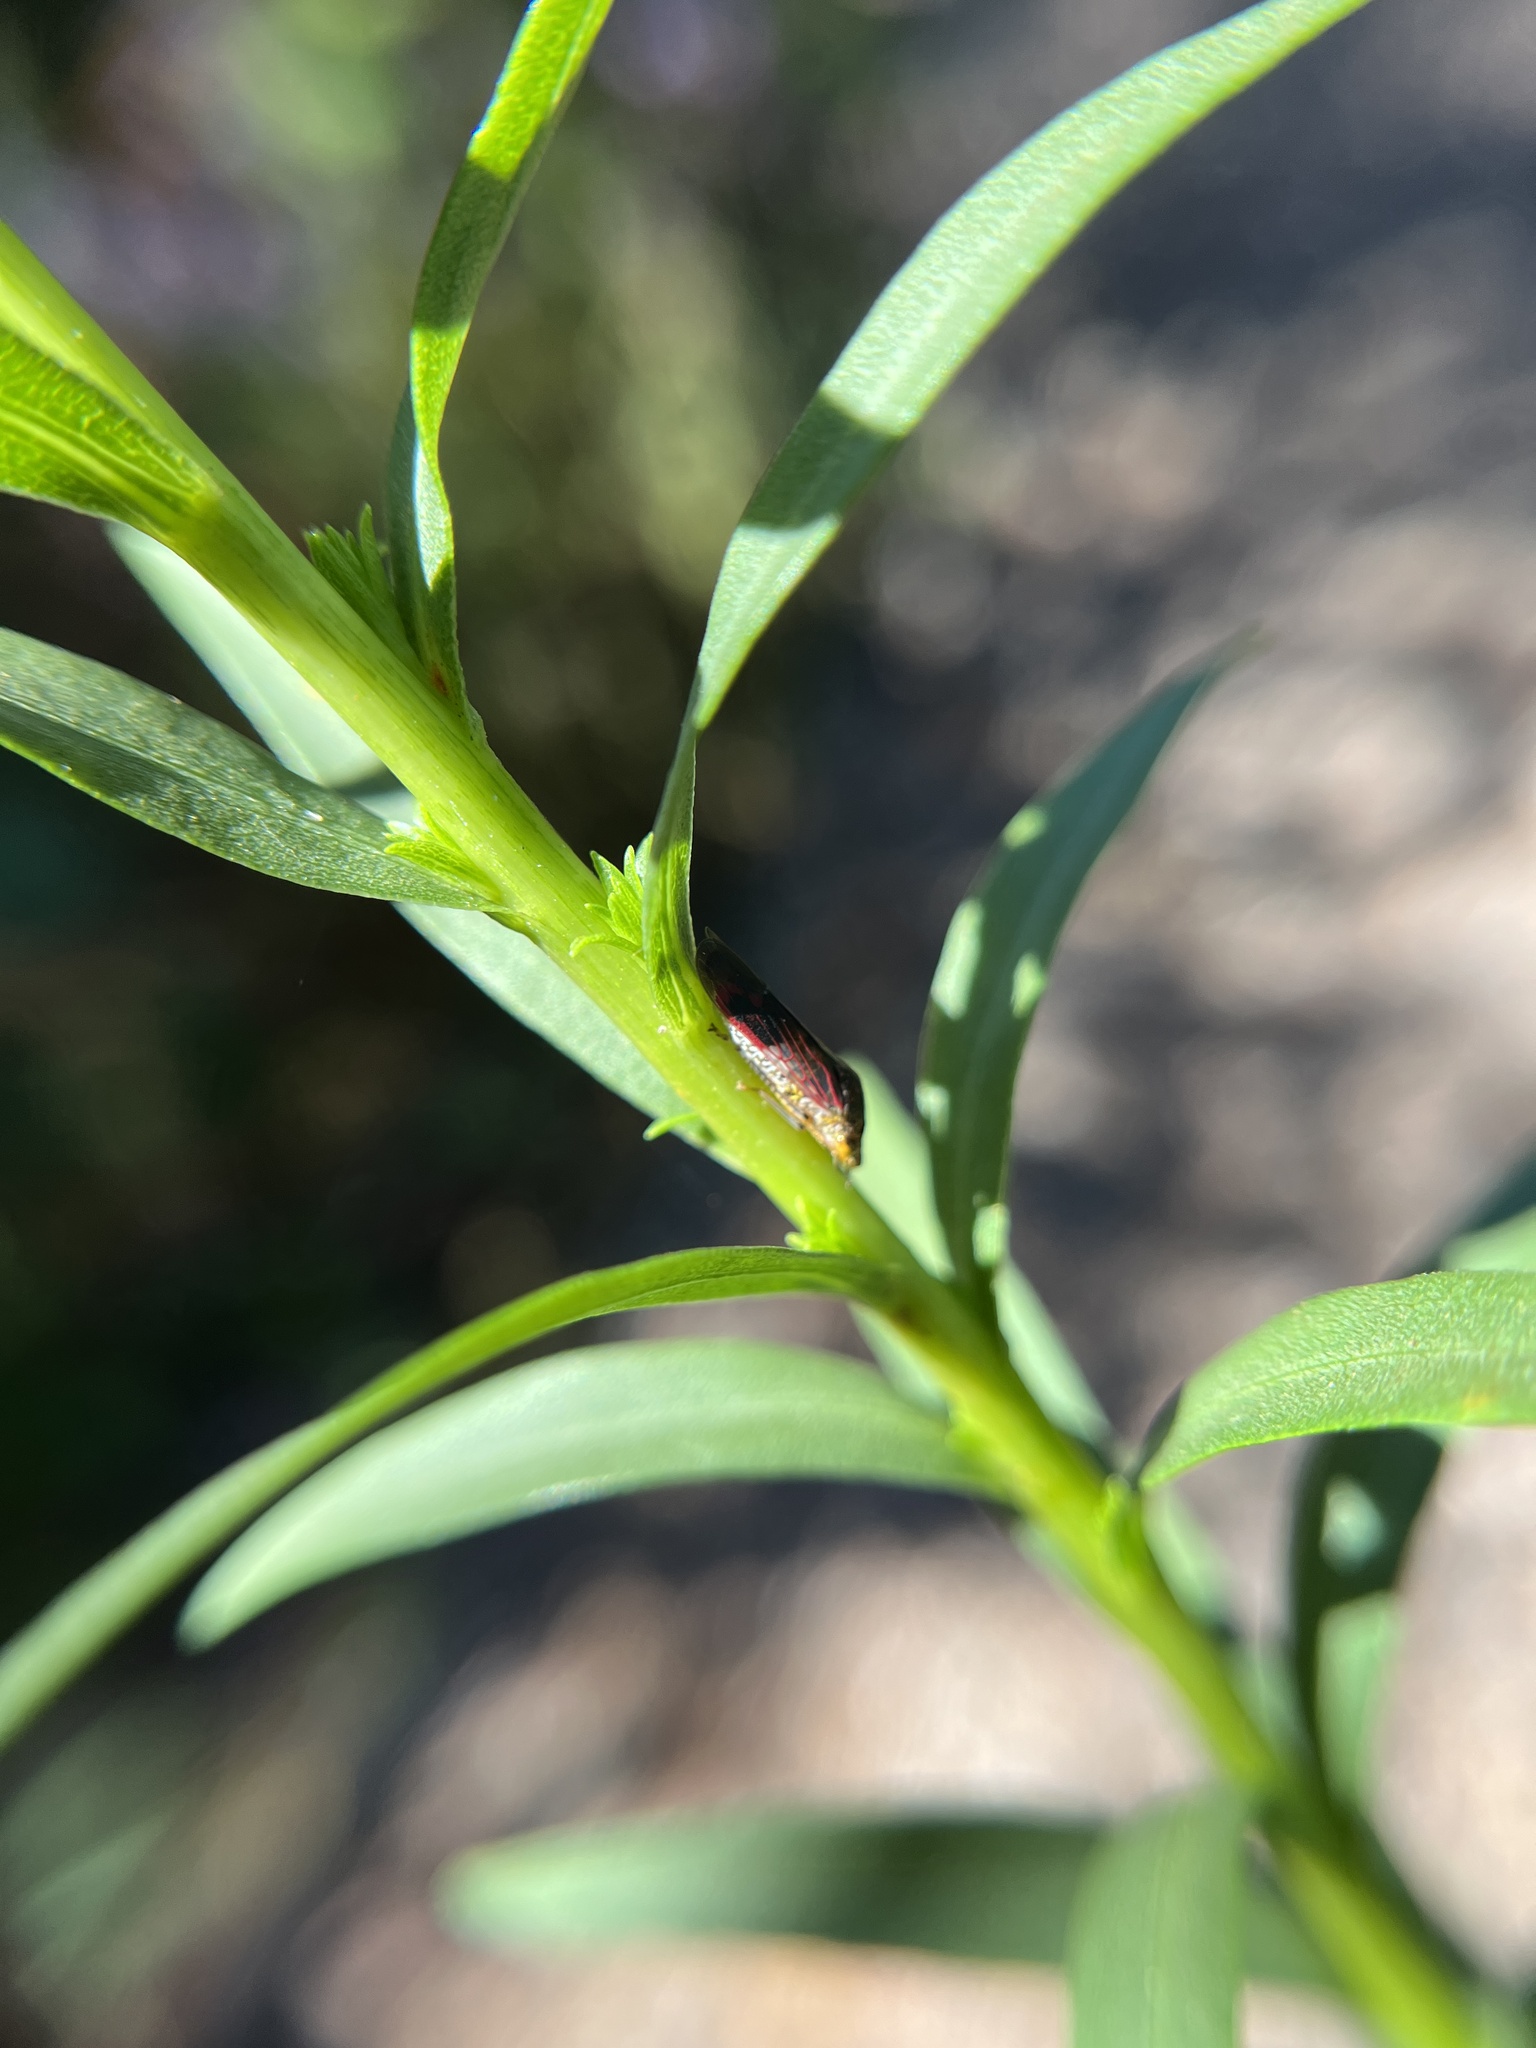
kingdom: Animalia
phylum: Arthropoda
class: Insecta
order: Hemiptera
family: Cicadellidae
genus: Homalodisca
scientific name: Homalodisca vitripennis
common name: Glassy-winged sharpshooter
